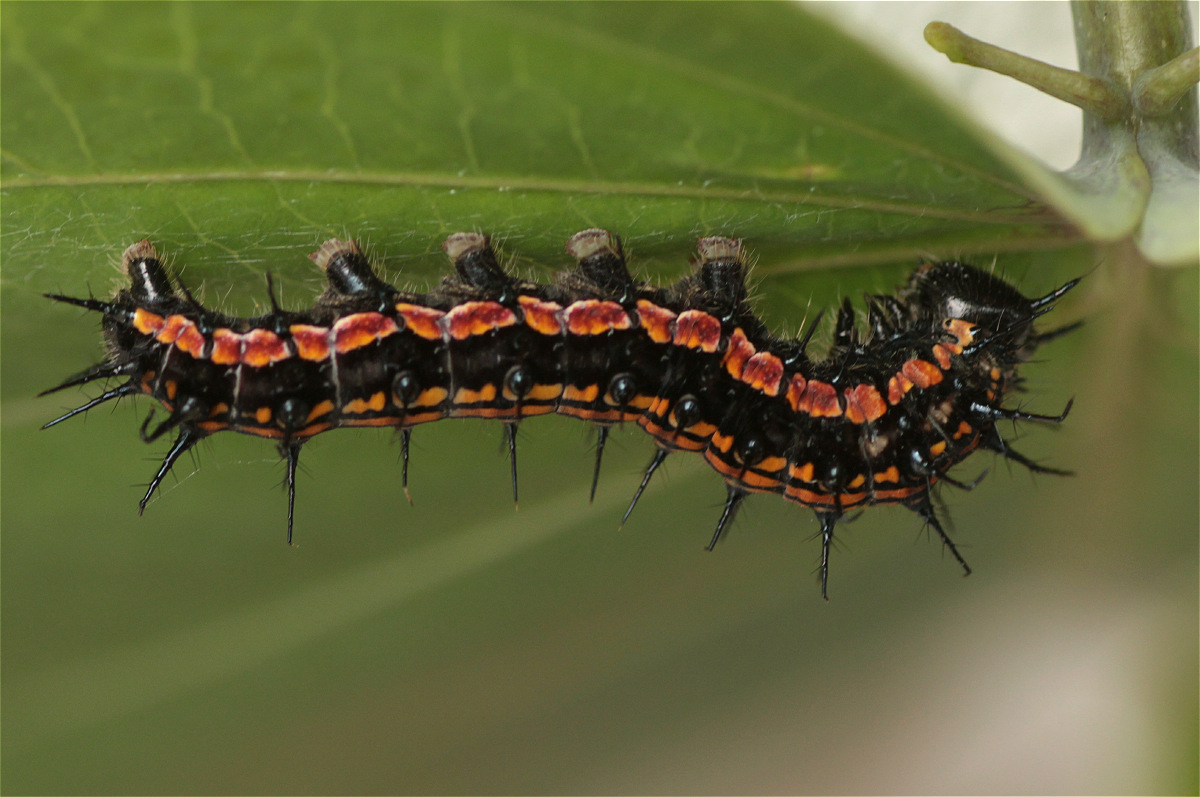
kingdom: Animalia
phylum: Arthropoda
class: Insecta
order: Lepidoptera
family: Nymphalidae
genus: Dione
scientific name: Dione glycera
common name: Andean silverspot
